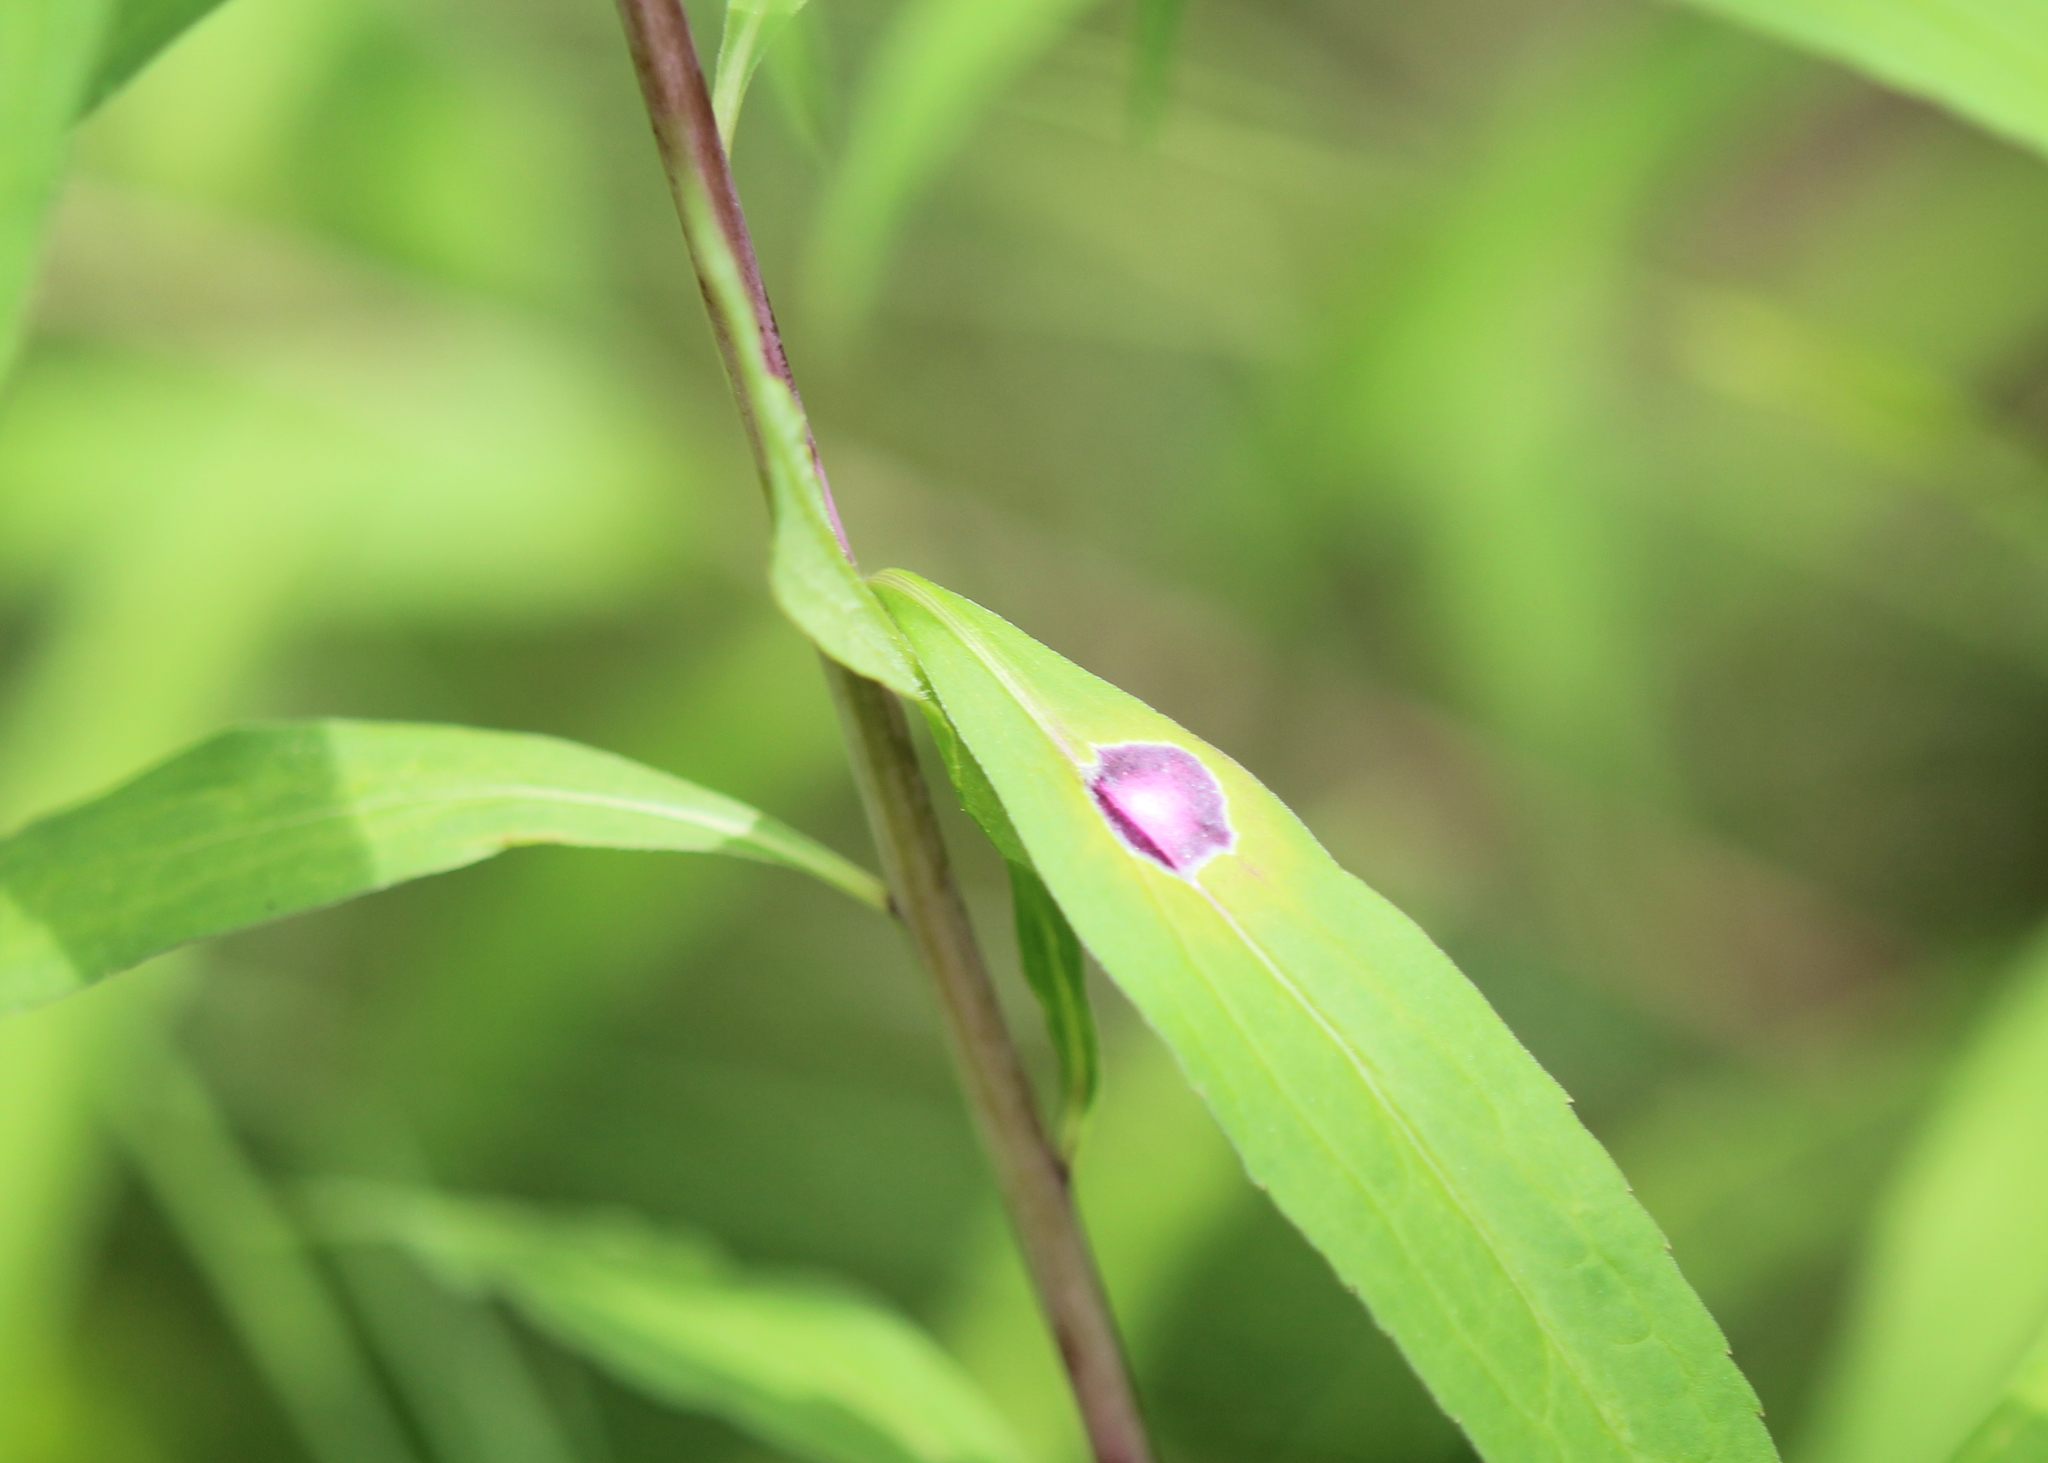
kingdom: Animalia
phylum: Arthropoda
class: Insecta
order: Diptera
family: Cecidomyiidae
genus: Asteromyia
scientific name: Asteromyia carbonifera
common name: Carbonifera goldenrod gall midge
